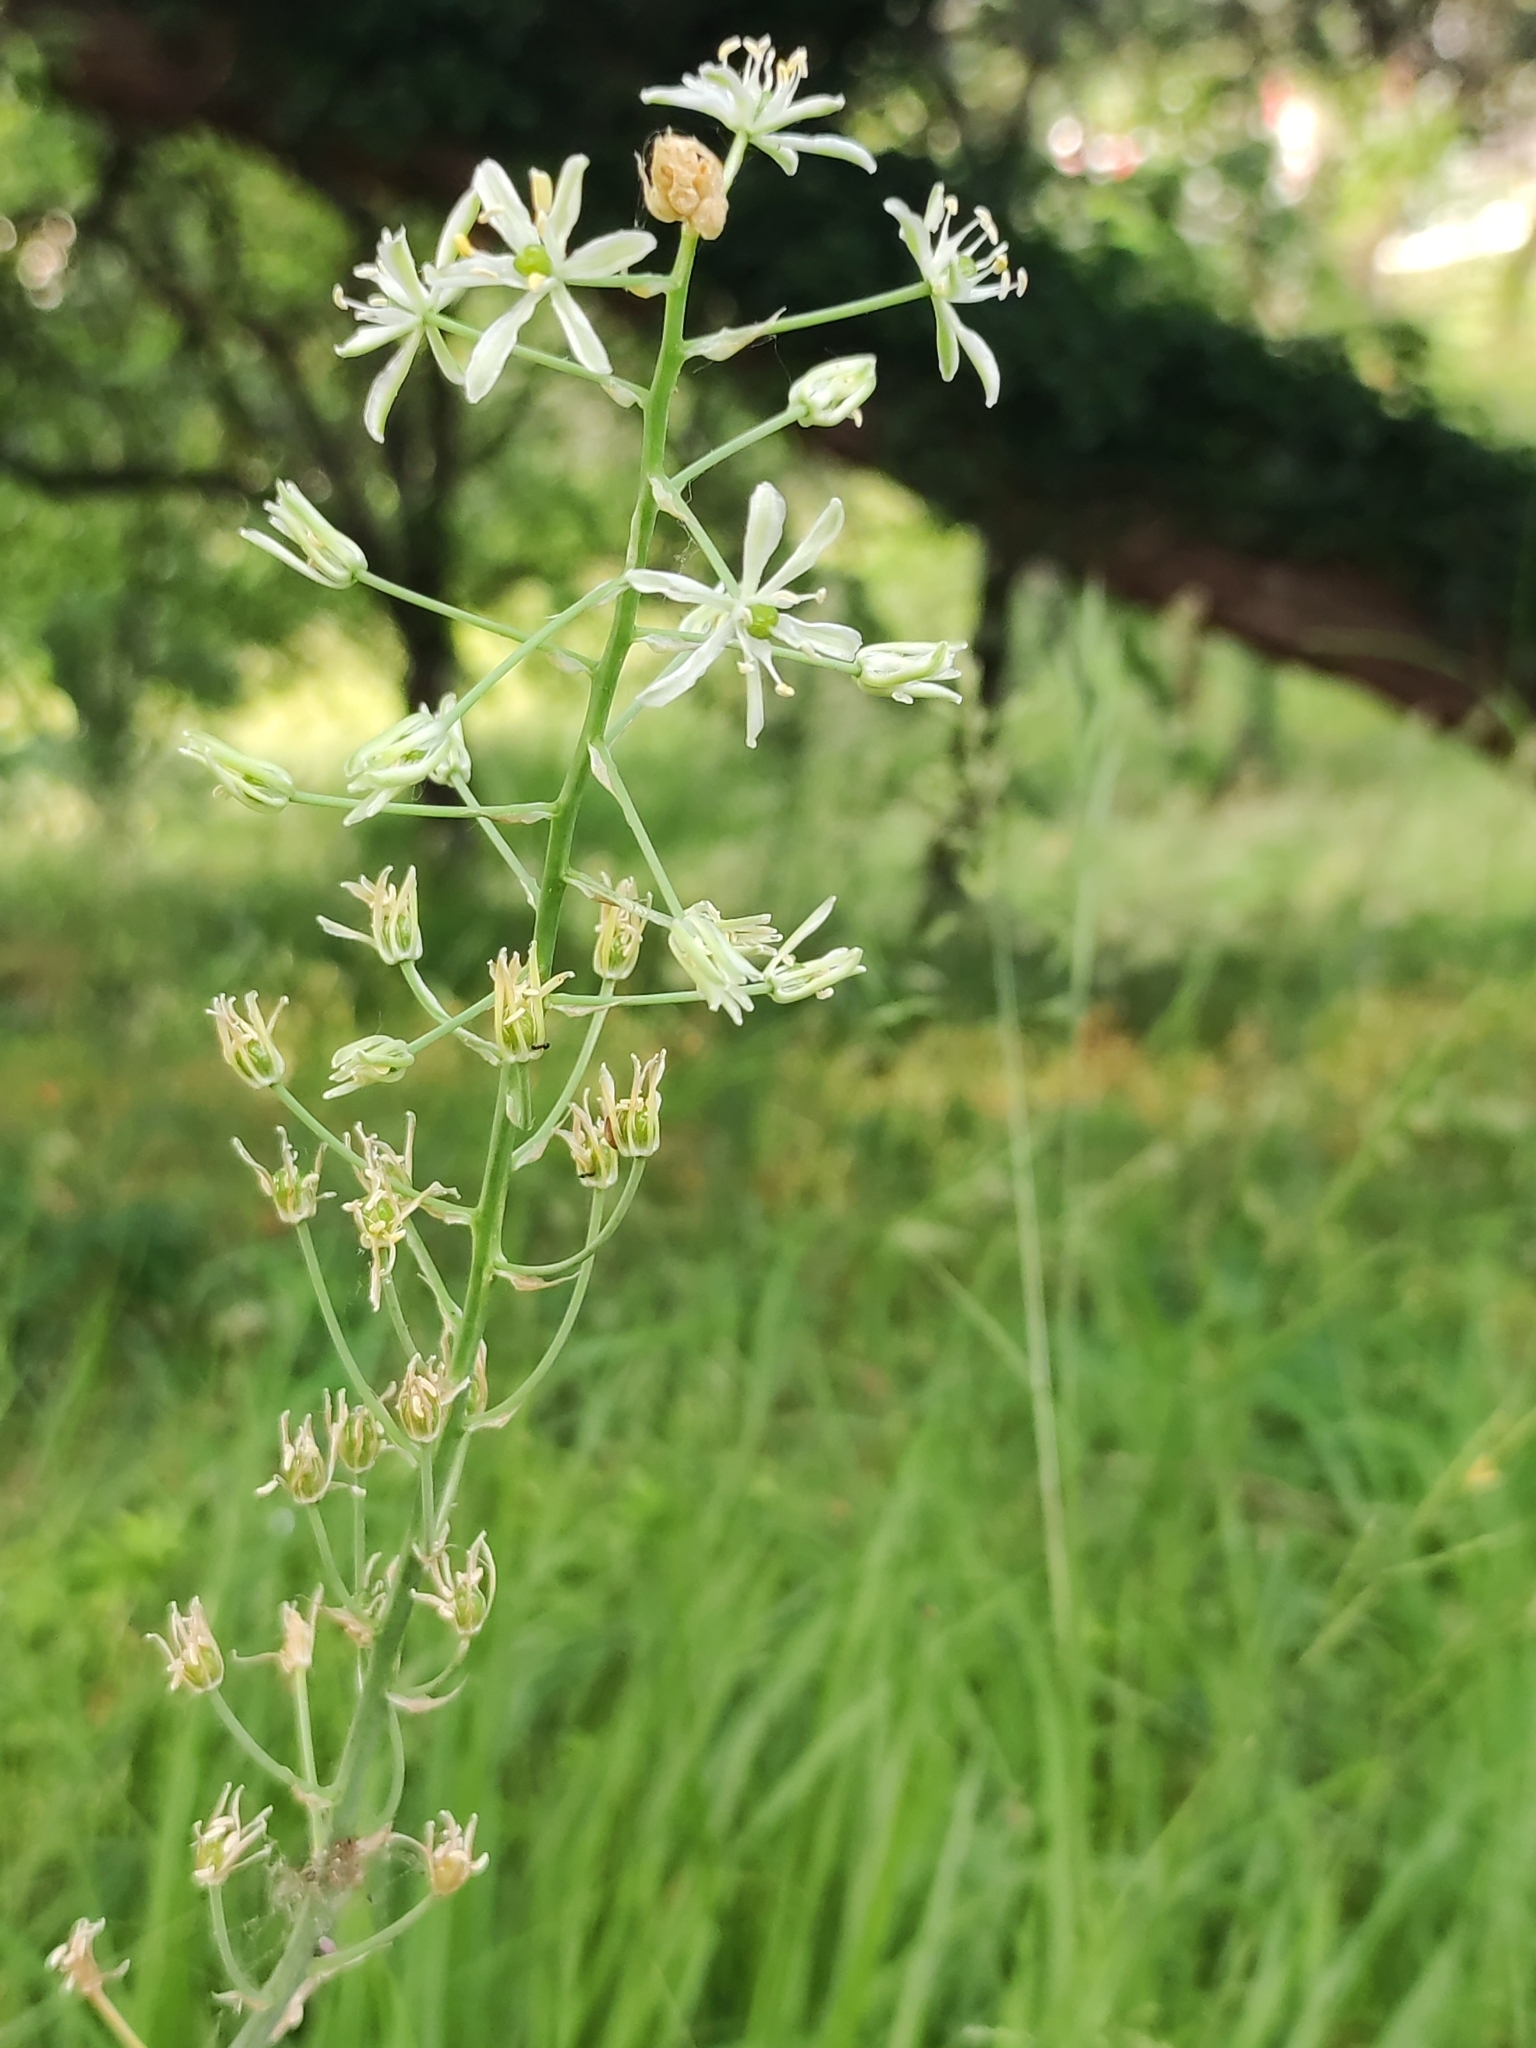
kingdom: Plantae
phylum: Tracheophyta
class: Liliopsida
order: Asparagales
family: Asparagaceae
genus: Ornithogalum
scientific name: Ornithogalum pyrenaicum
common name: Spiked star-of-bethlehem
